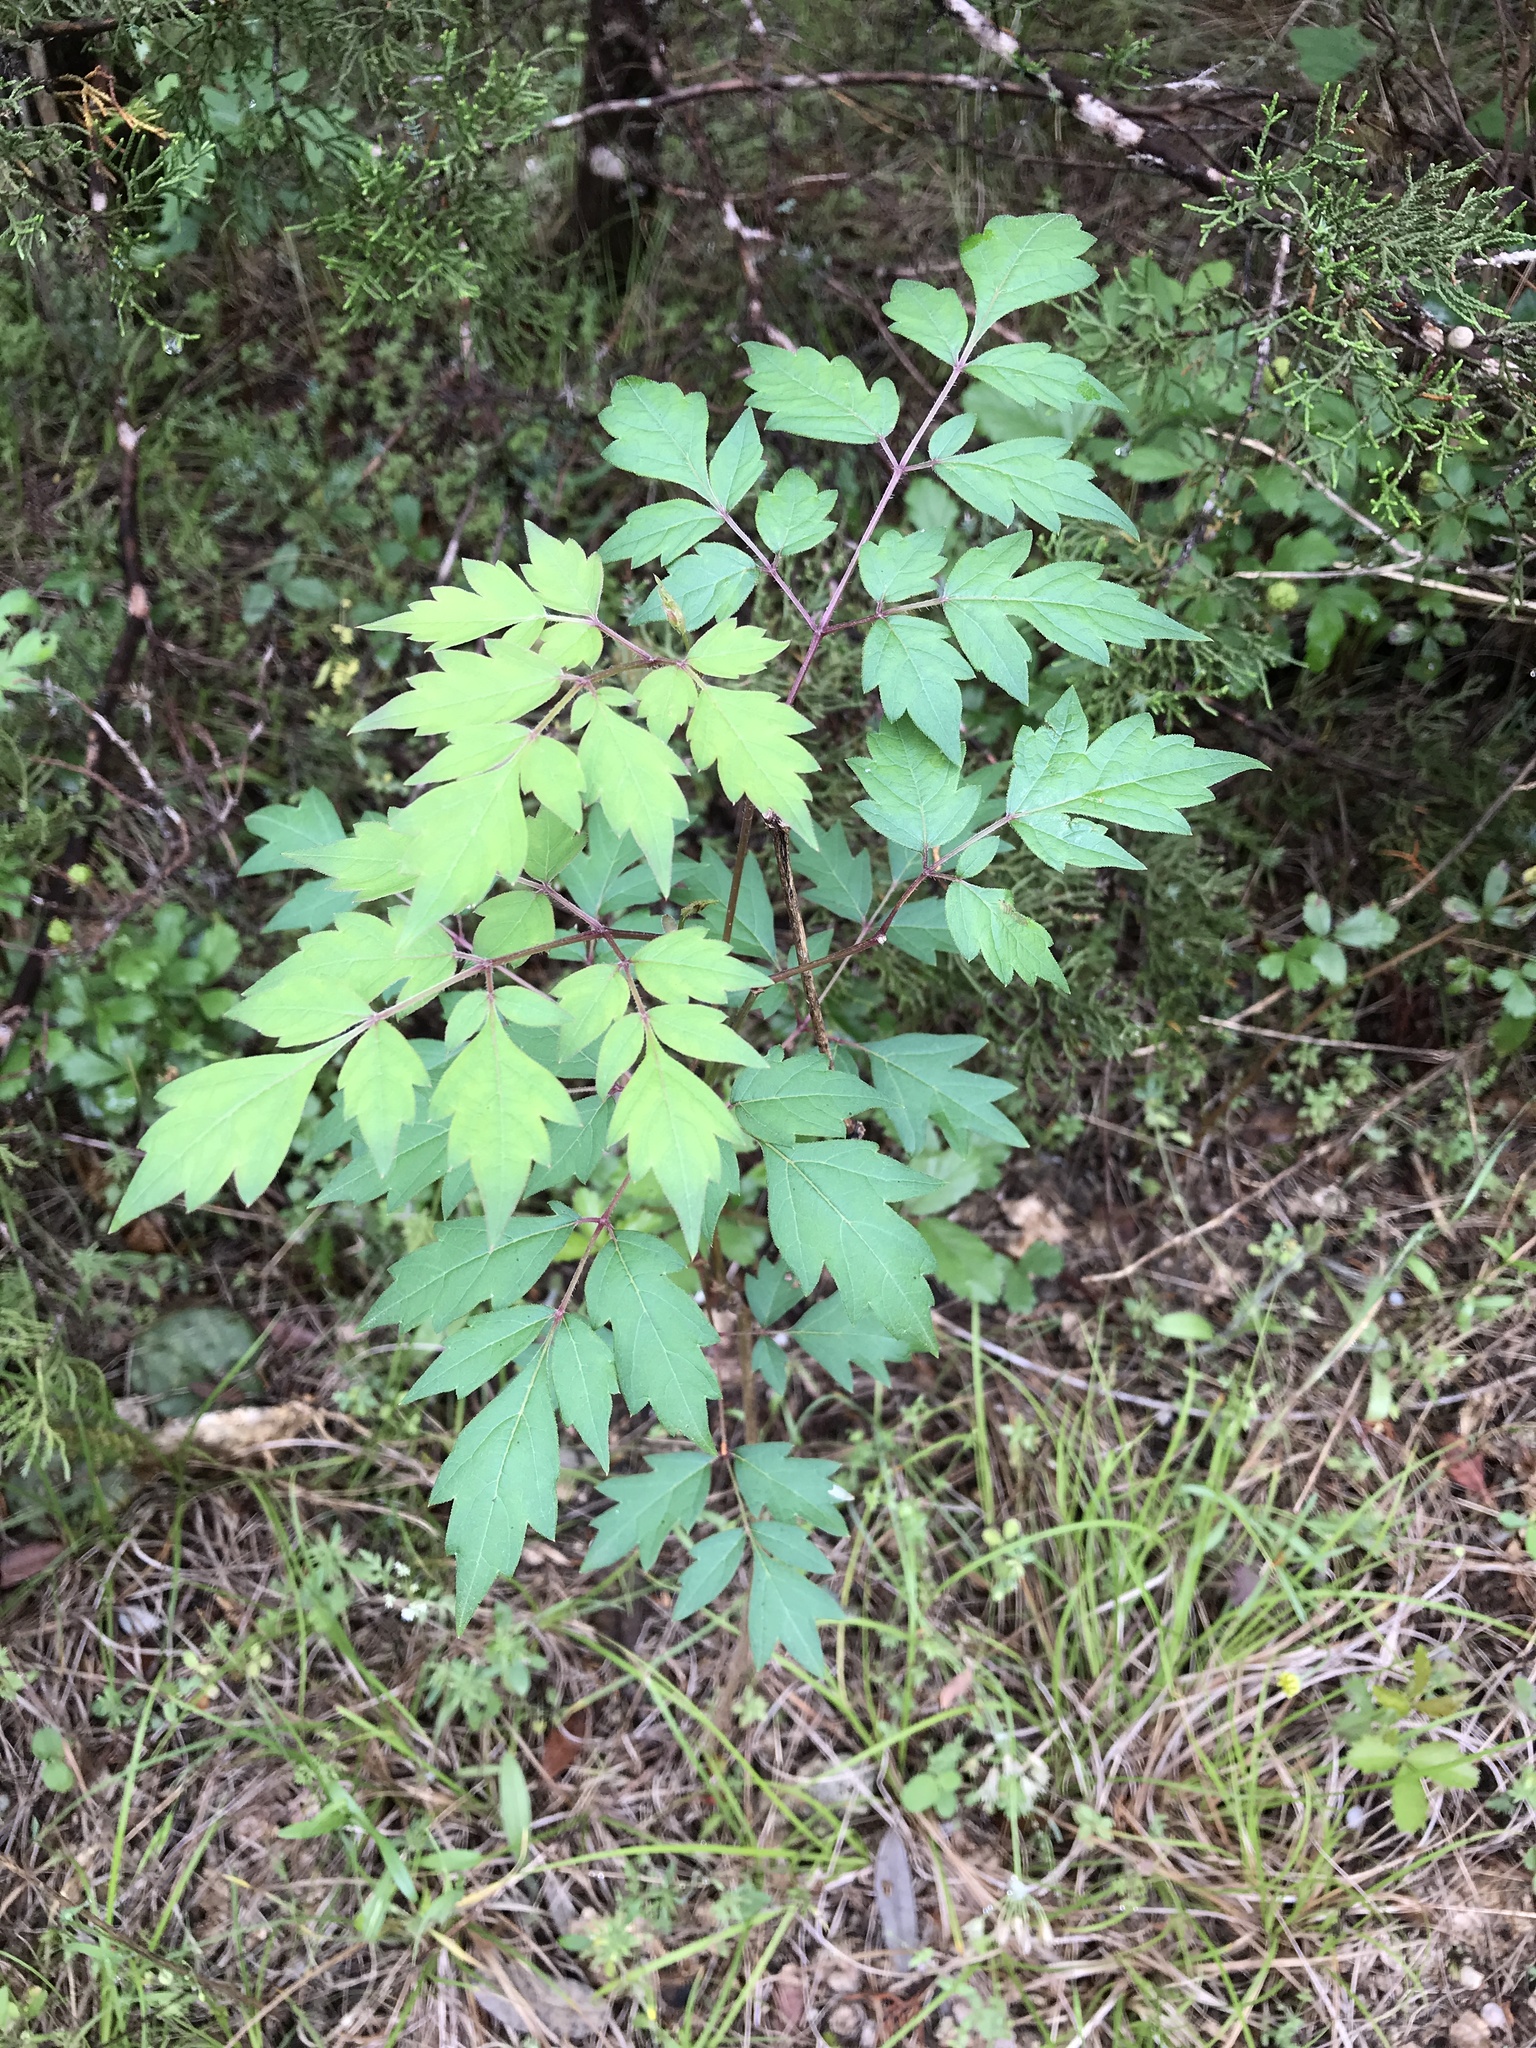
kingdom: Plantae
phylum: Tracheophyta
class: Magnoliopsida
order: Vitales
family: Vitaceae
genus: Nekemias
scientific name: Nekemias arborea
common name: Peppervine
